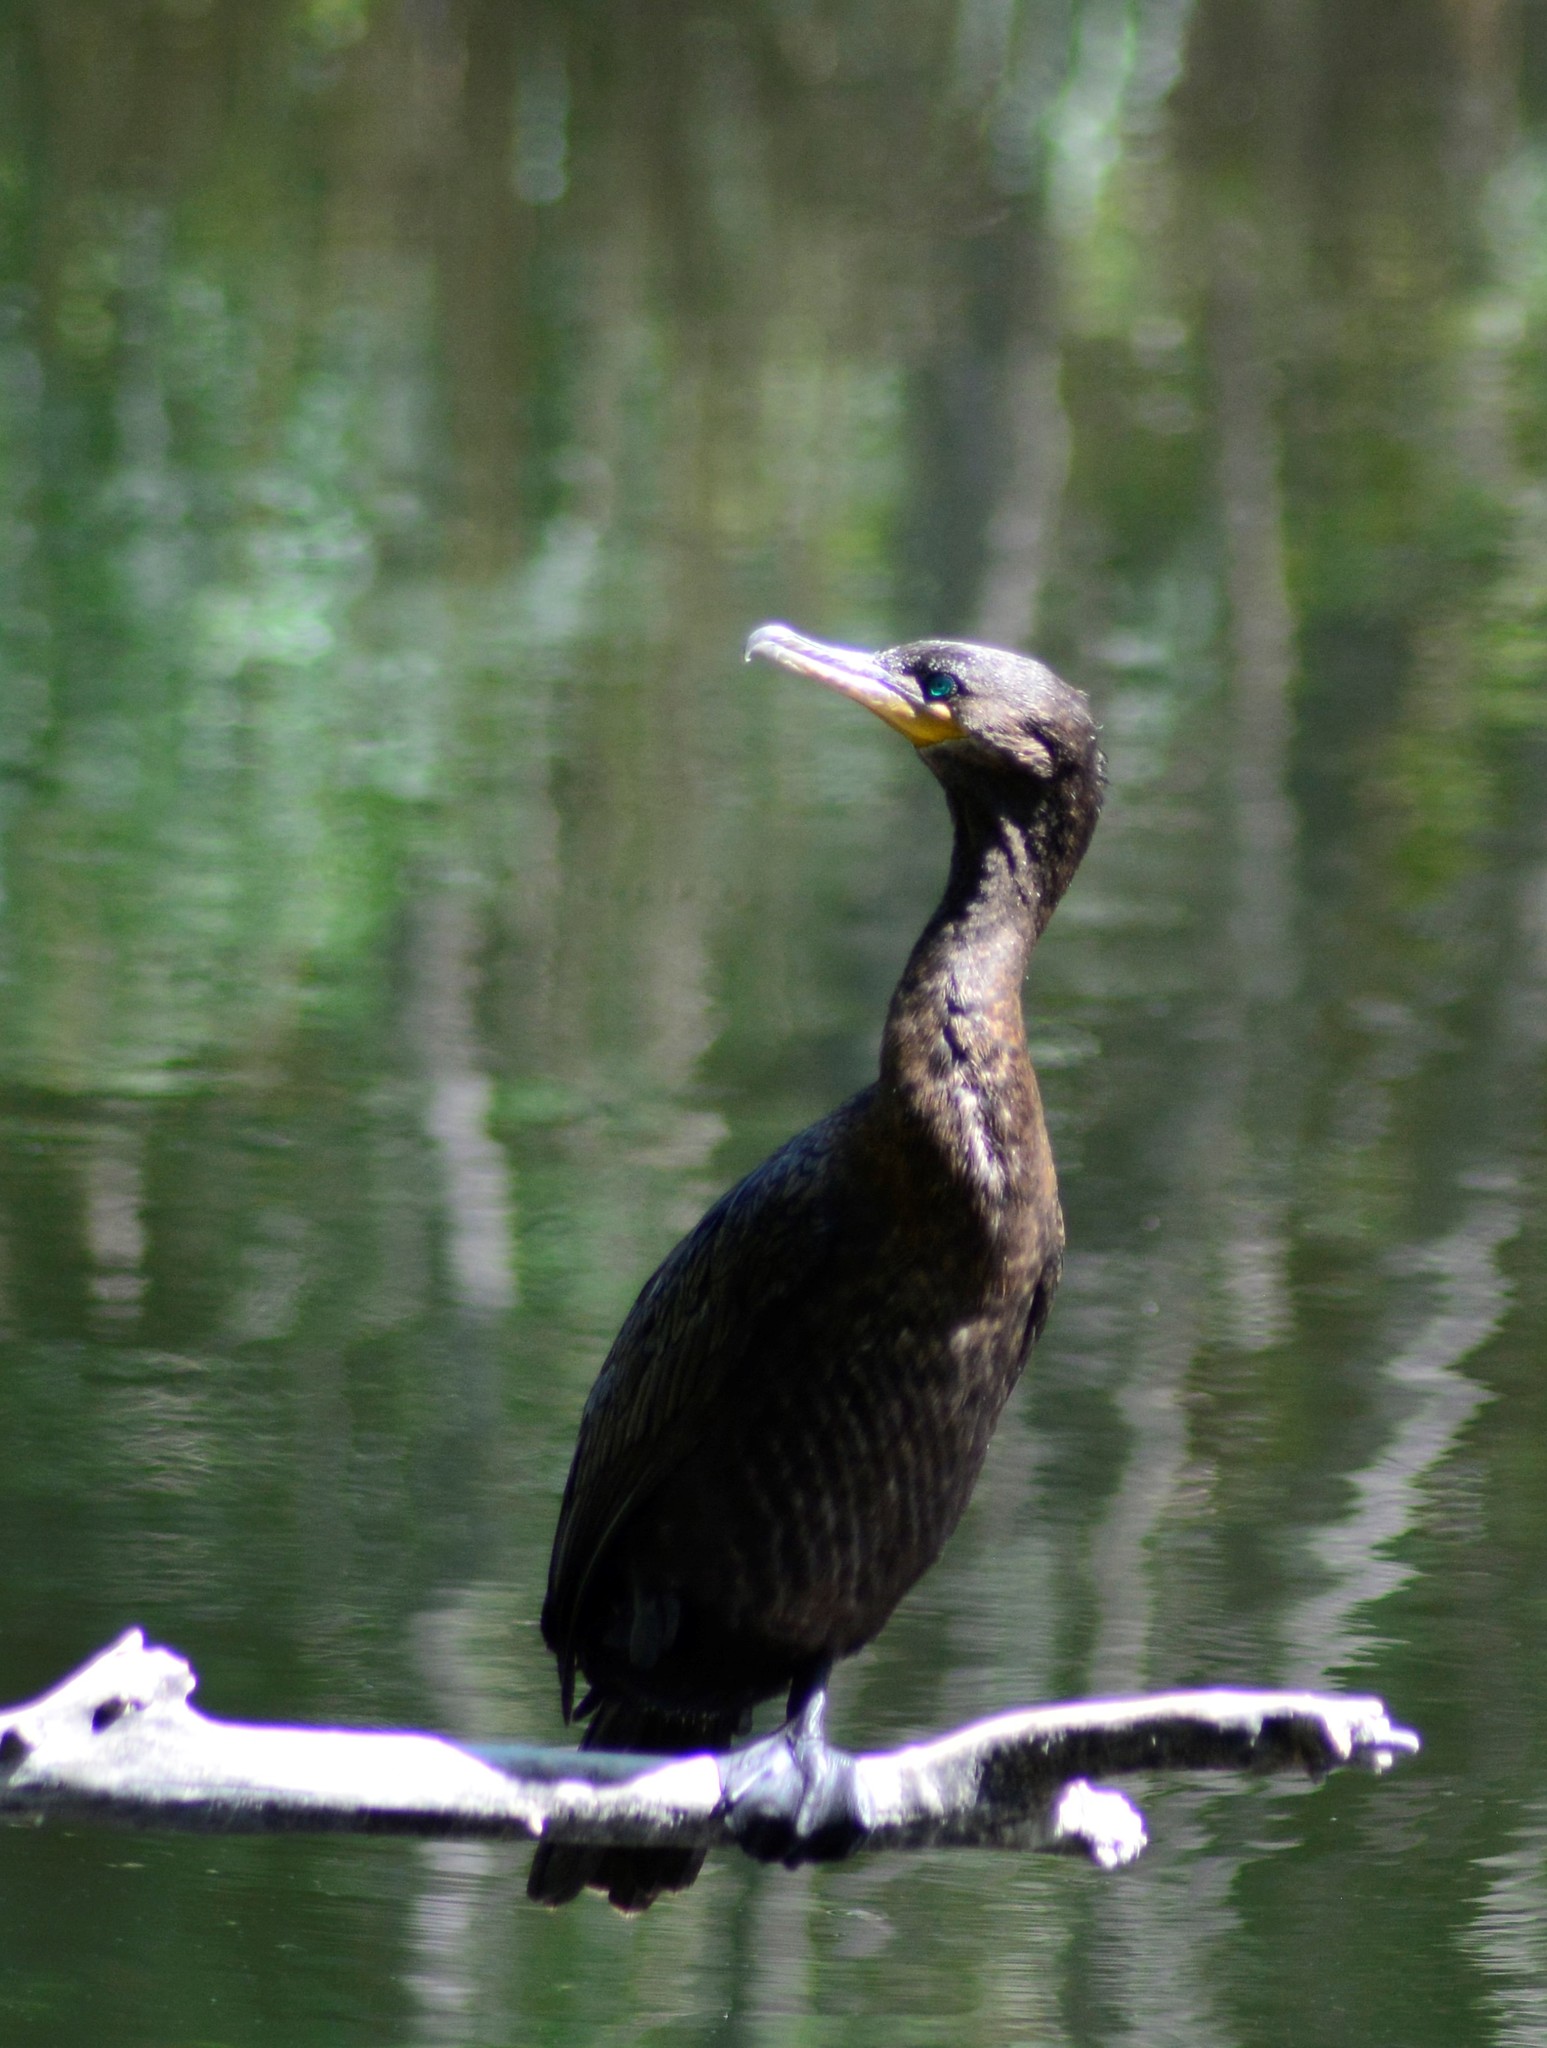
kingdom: Animalia
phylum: Chordata
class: Aves
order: Suliformes
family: Phalacrocoracidae
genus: Phalacrocorax
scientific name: Phalacrocorax brasilianus
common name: Neotropic cormorant
